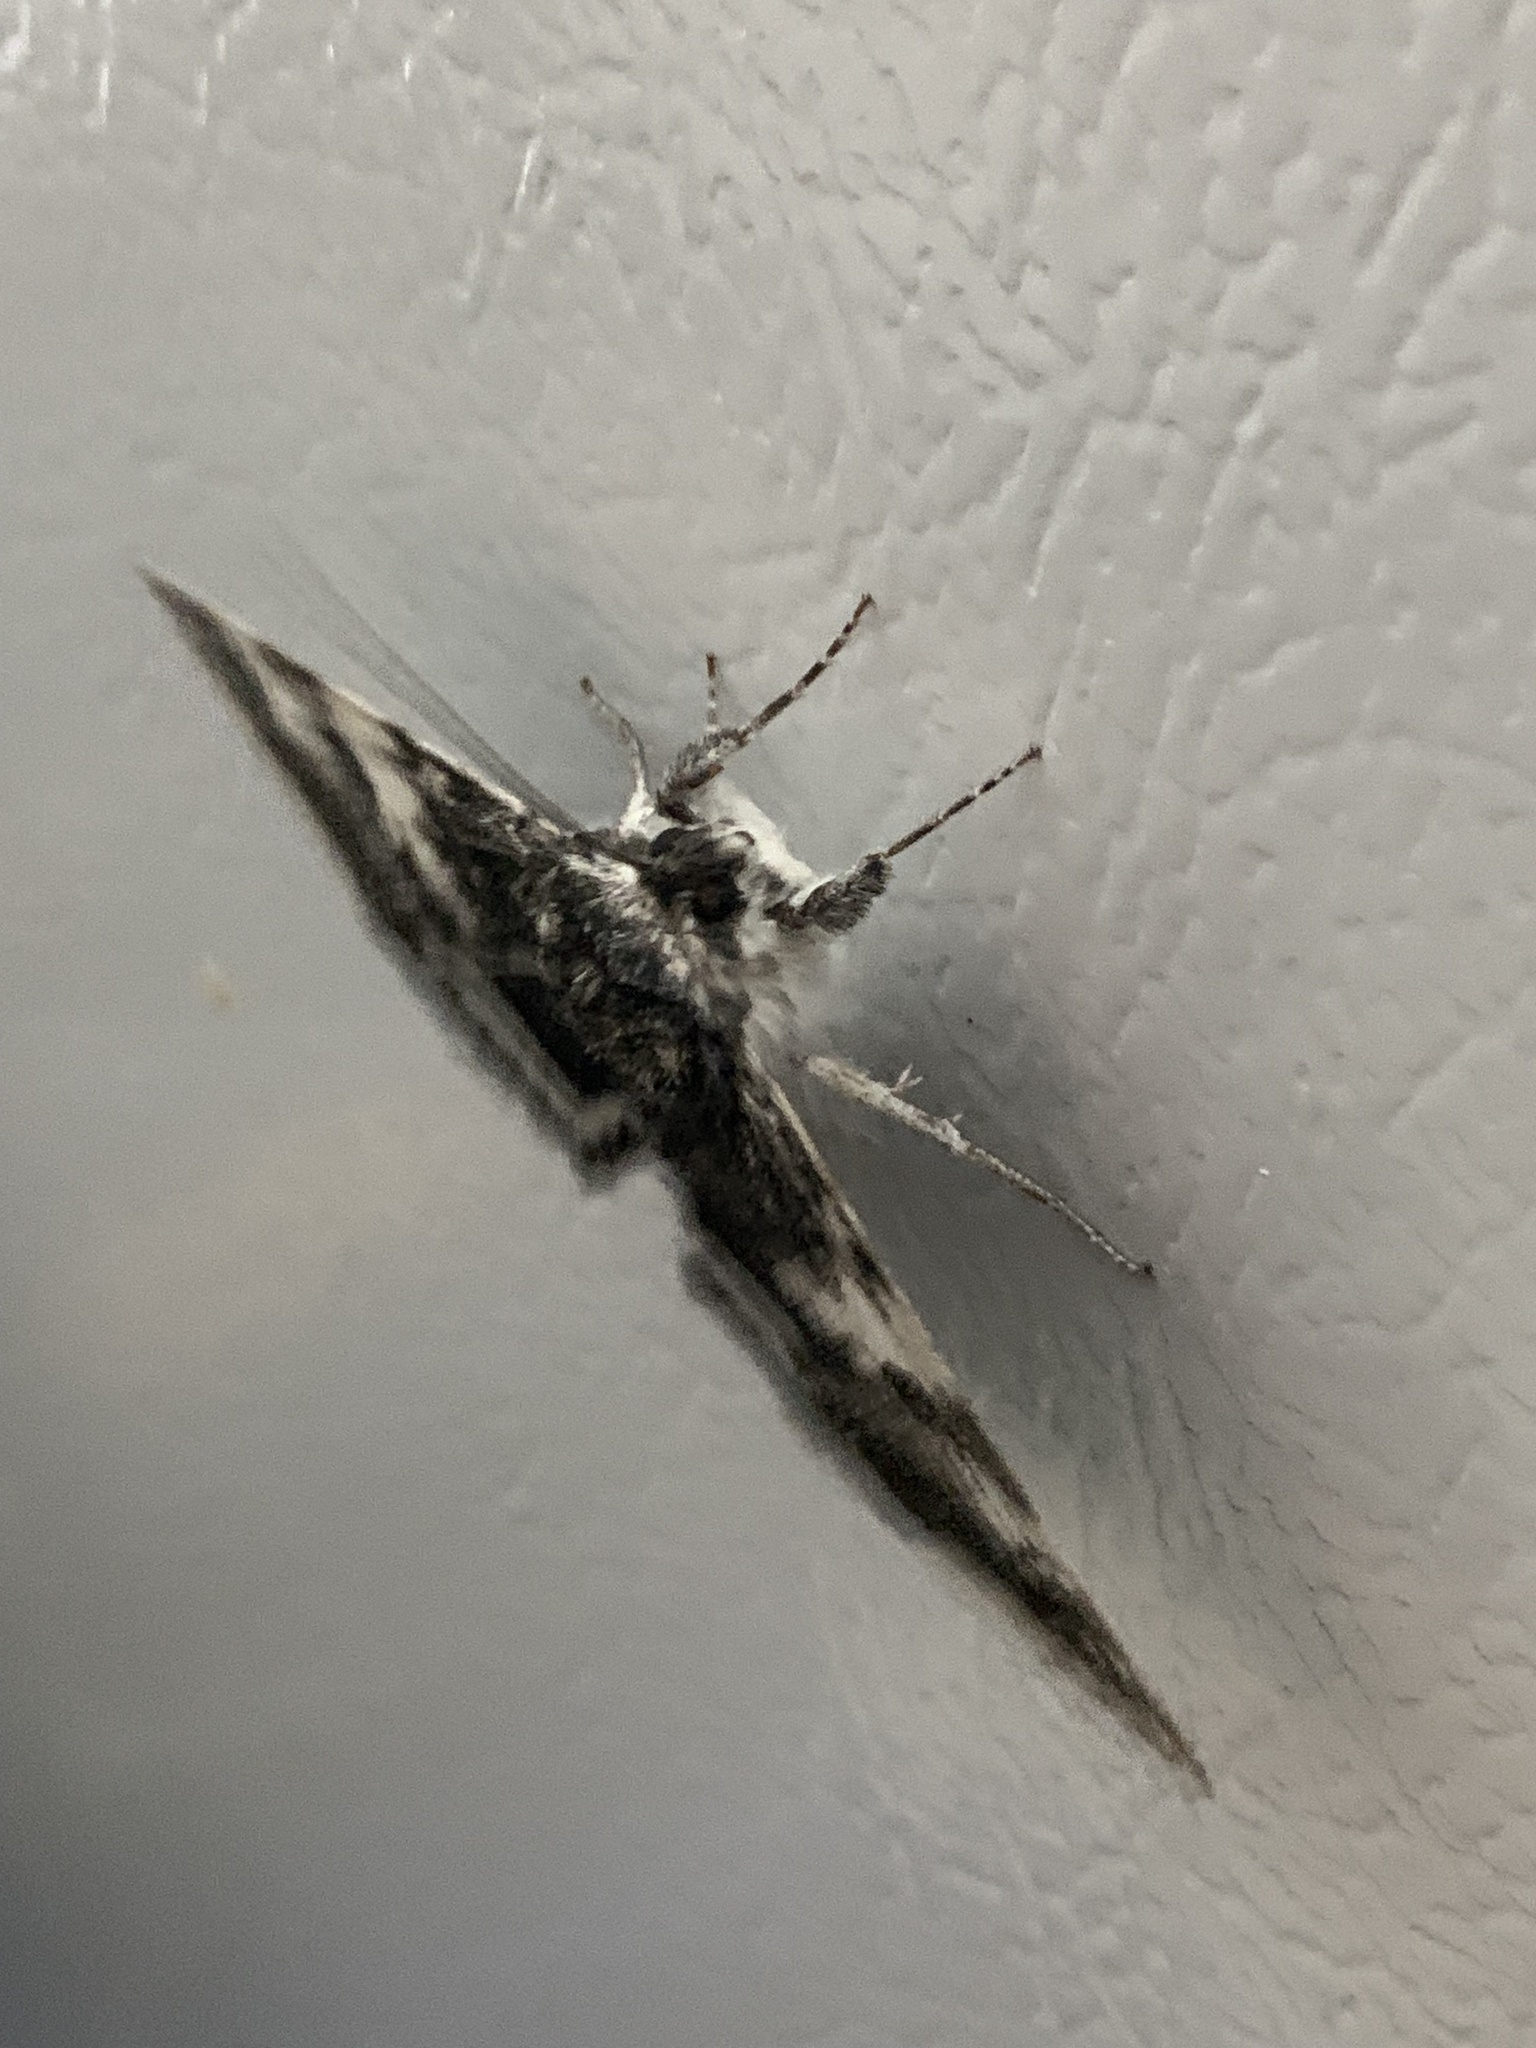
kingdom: Animalia
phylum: Arthropoda
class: Insecta
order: Lepidoptera
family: Erebidae
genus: Catocala
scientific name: Catocala relicta
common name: White underwing
